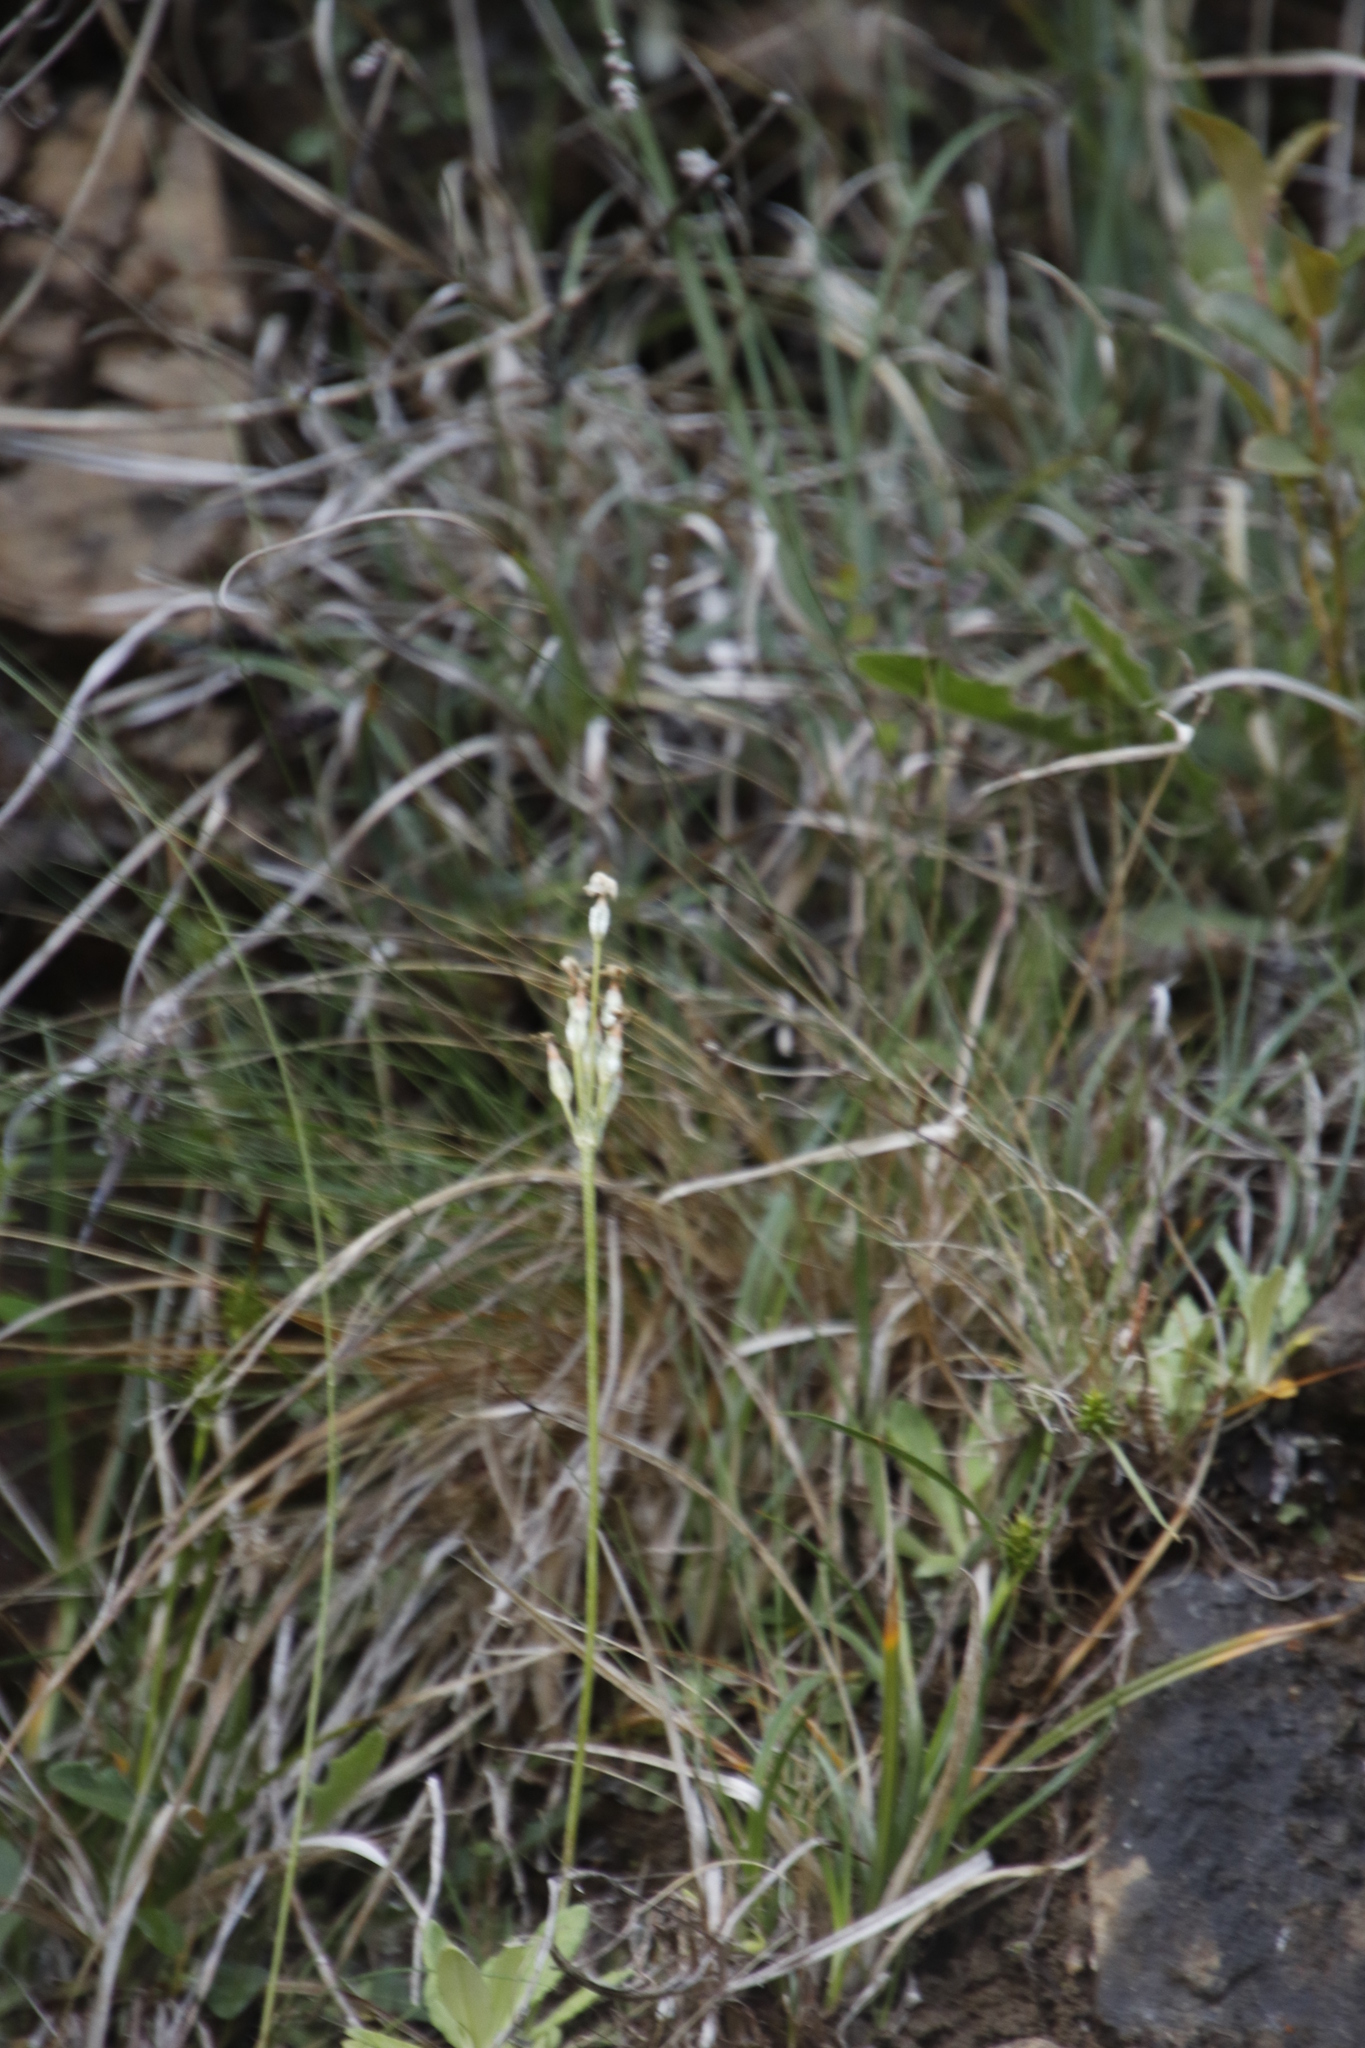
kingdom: Plantae
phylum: Tracheophyta
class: Magnoliopsida
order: Ericales
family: Primulaceae
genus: Primula
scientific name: Primula farinosa
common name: Bird's-eye primrose
